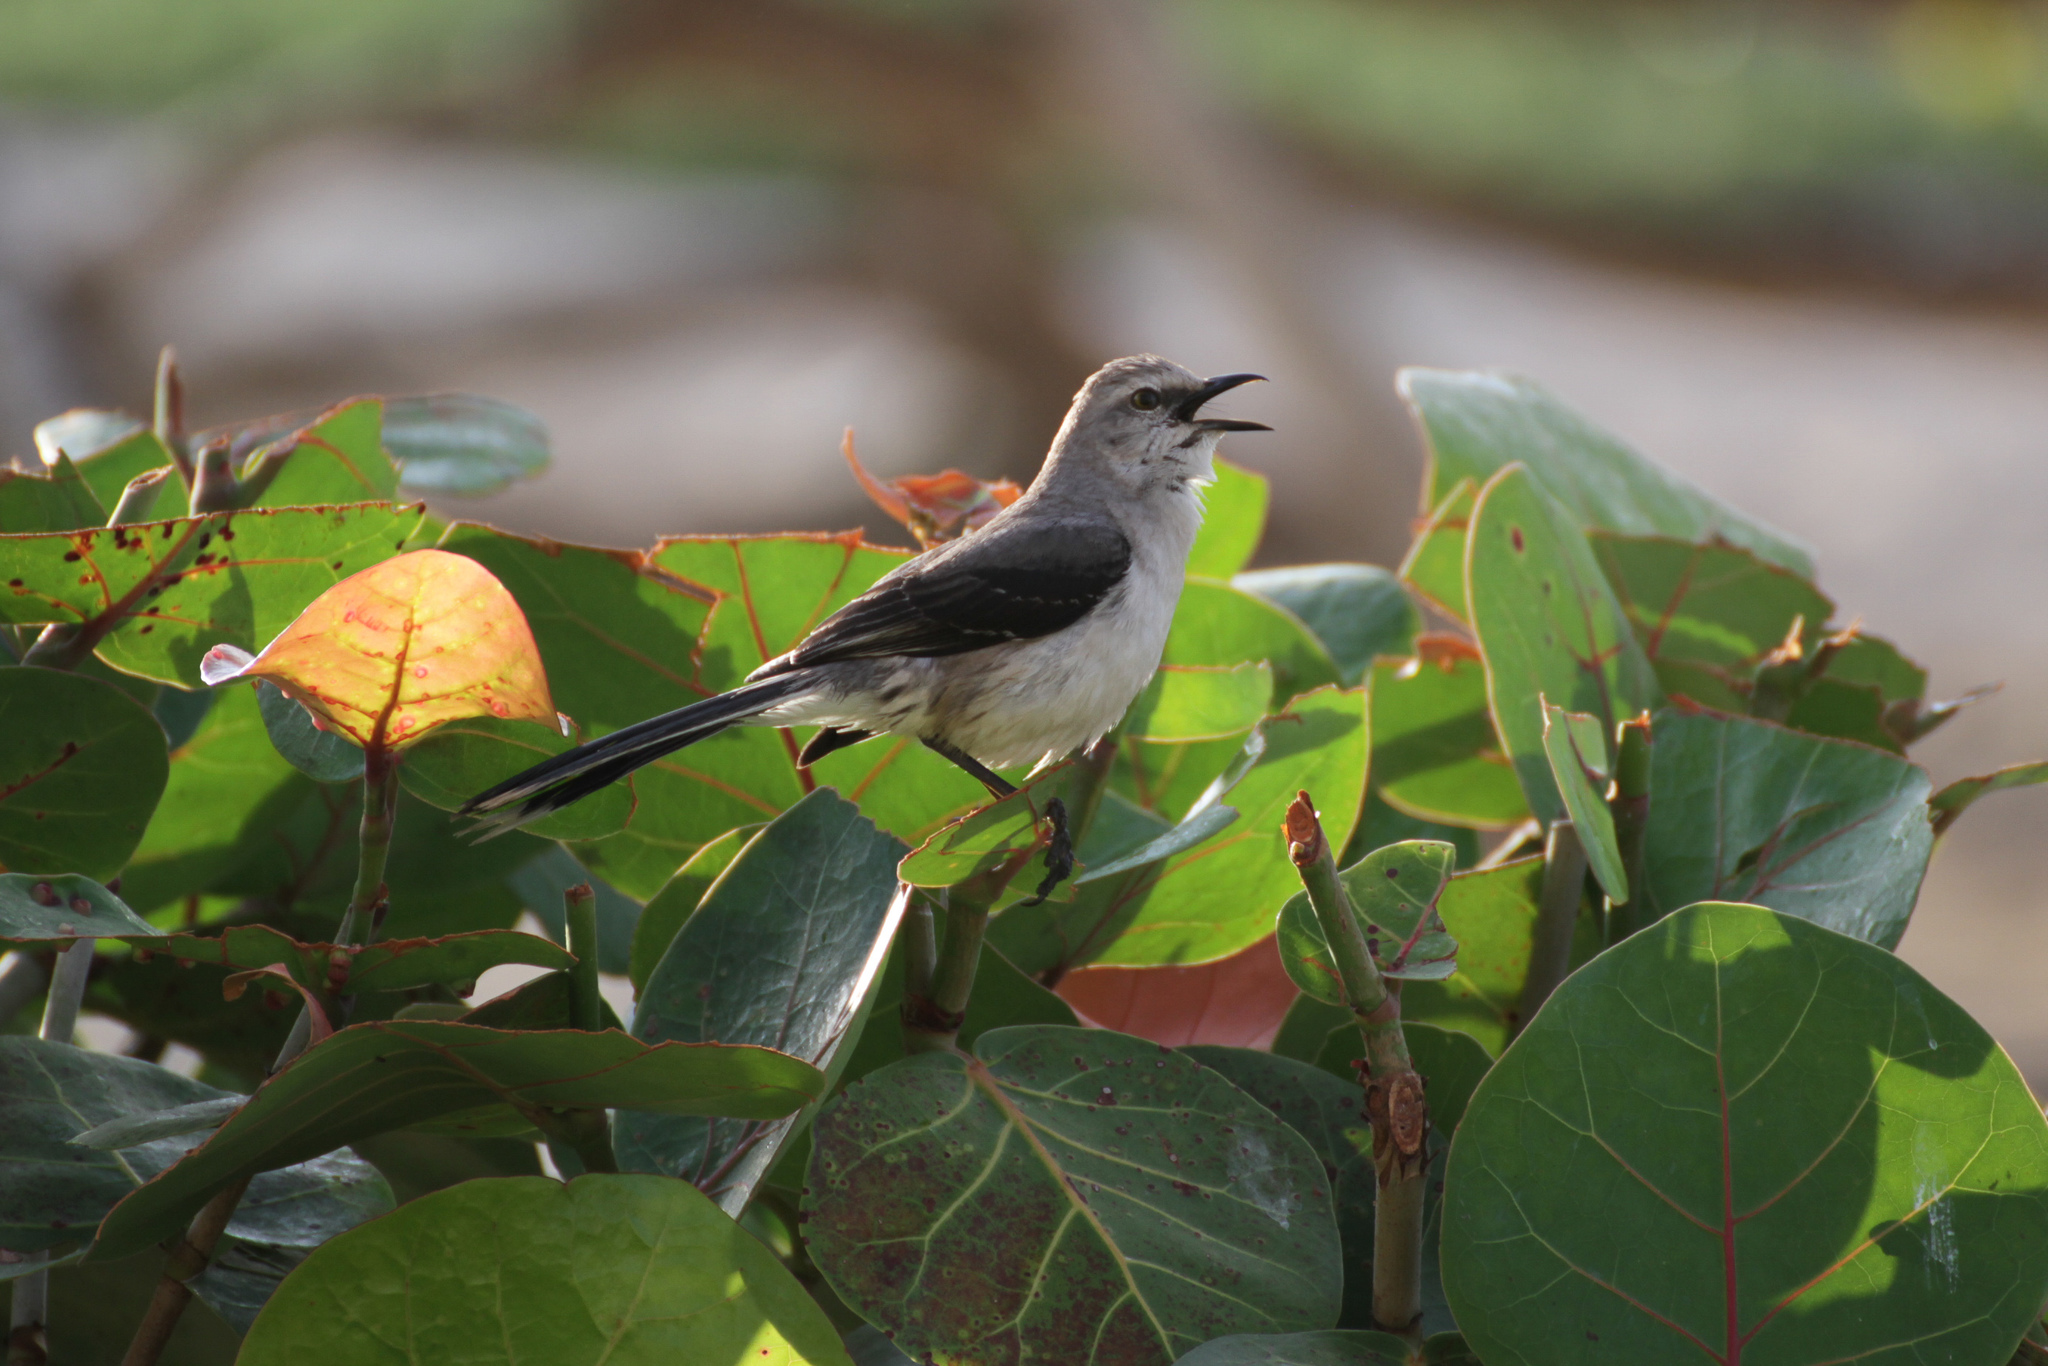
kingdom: Animalia
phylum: Chordata
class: Aves
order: Passeriformes
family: Mimidae
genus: Mimus
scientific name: Mimus gilvus
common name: Tropical mockingbird
